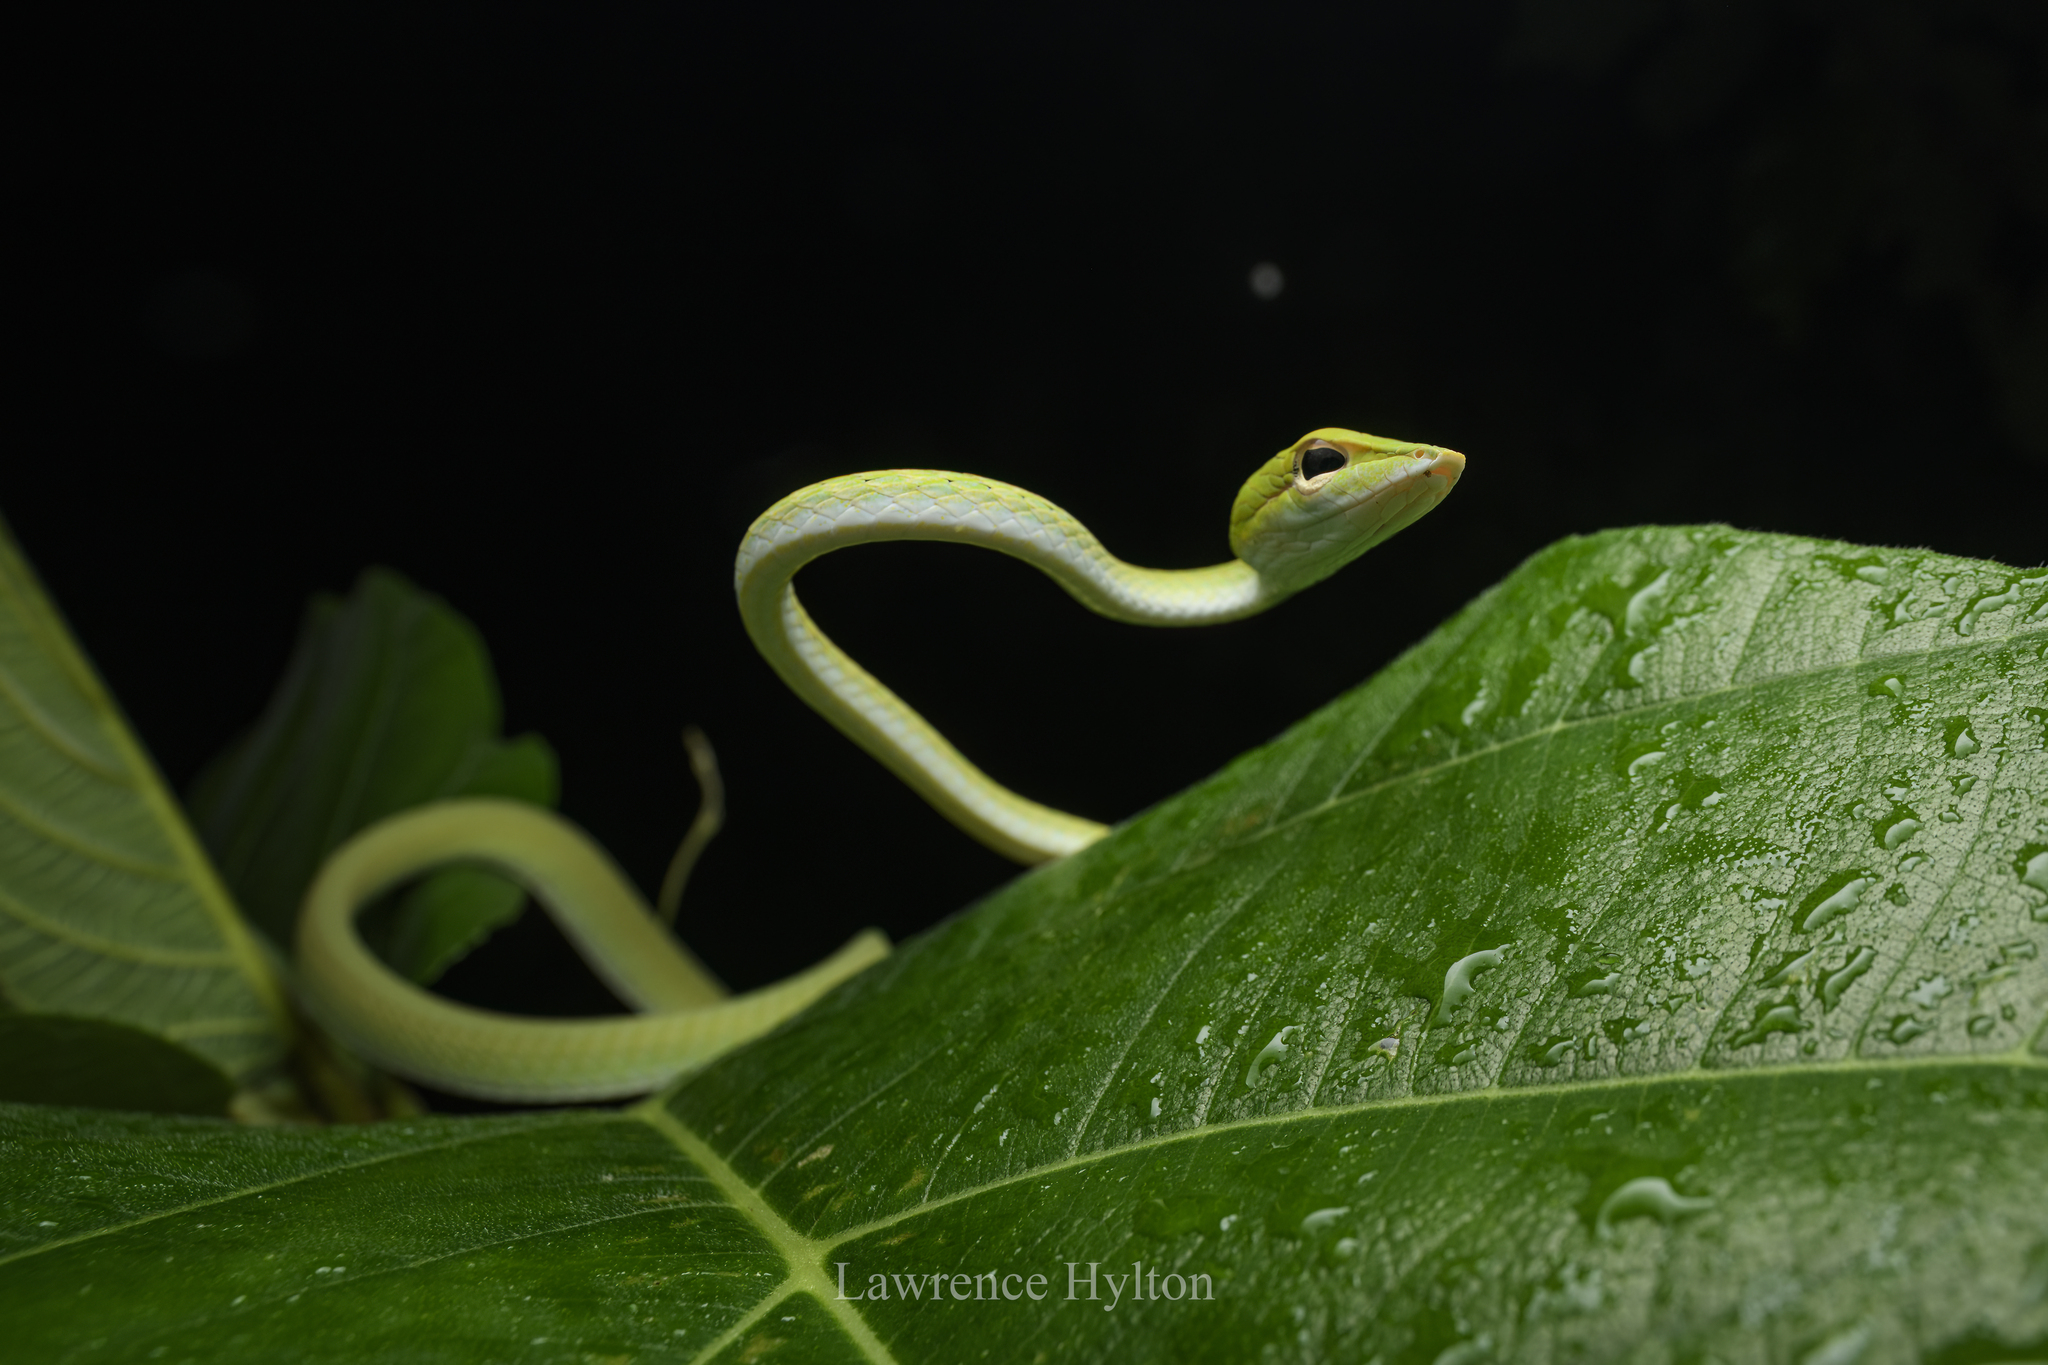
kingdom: Animalia
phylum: Chordata
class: Squamata
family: Colubridae
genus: Ahaetulla
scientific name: Ahaetulla prasina
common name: Oriental whip snake
